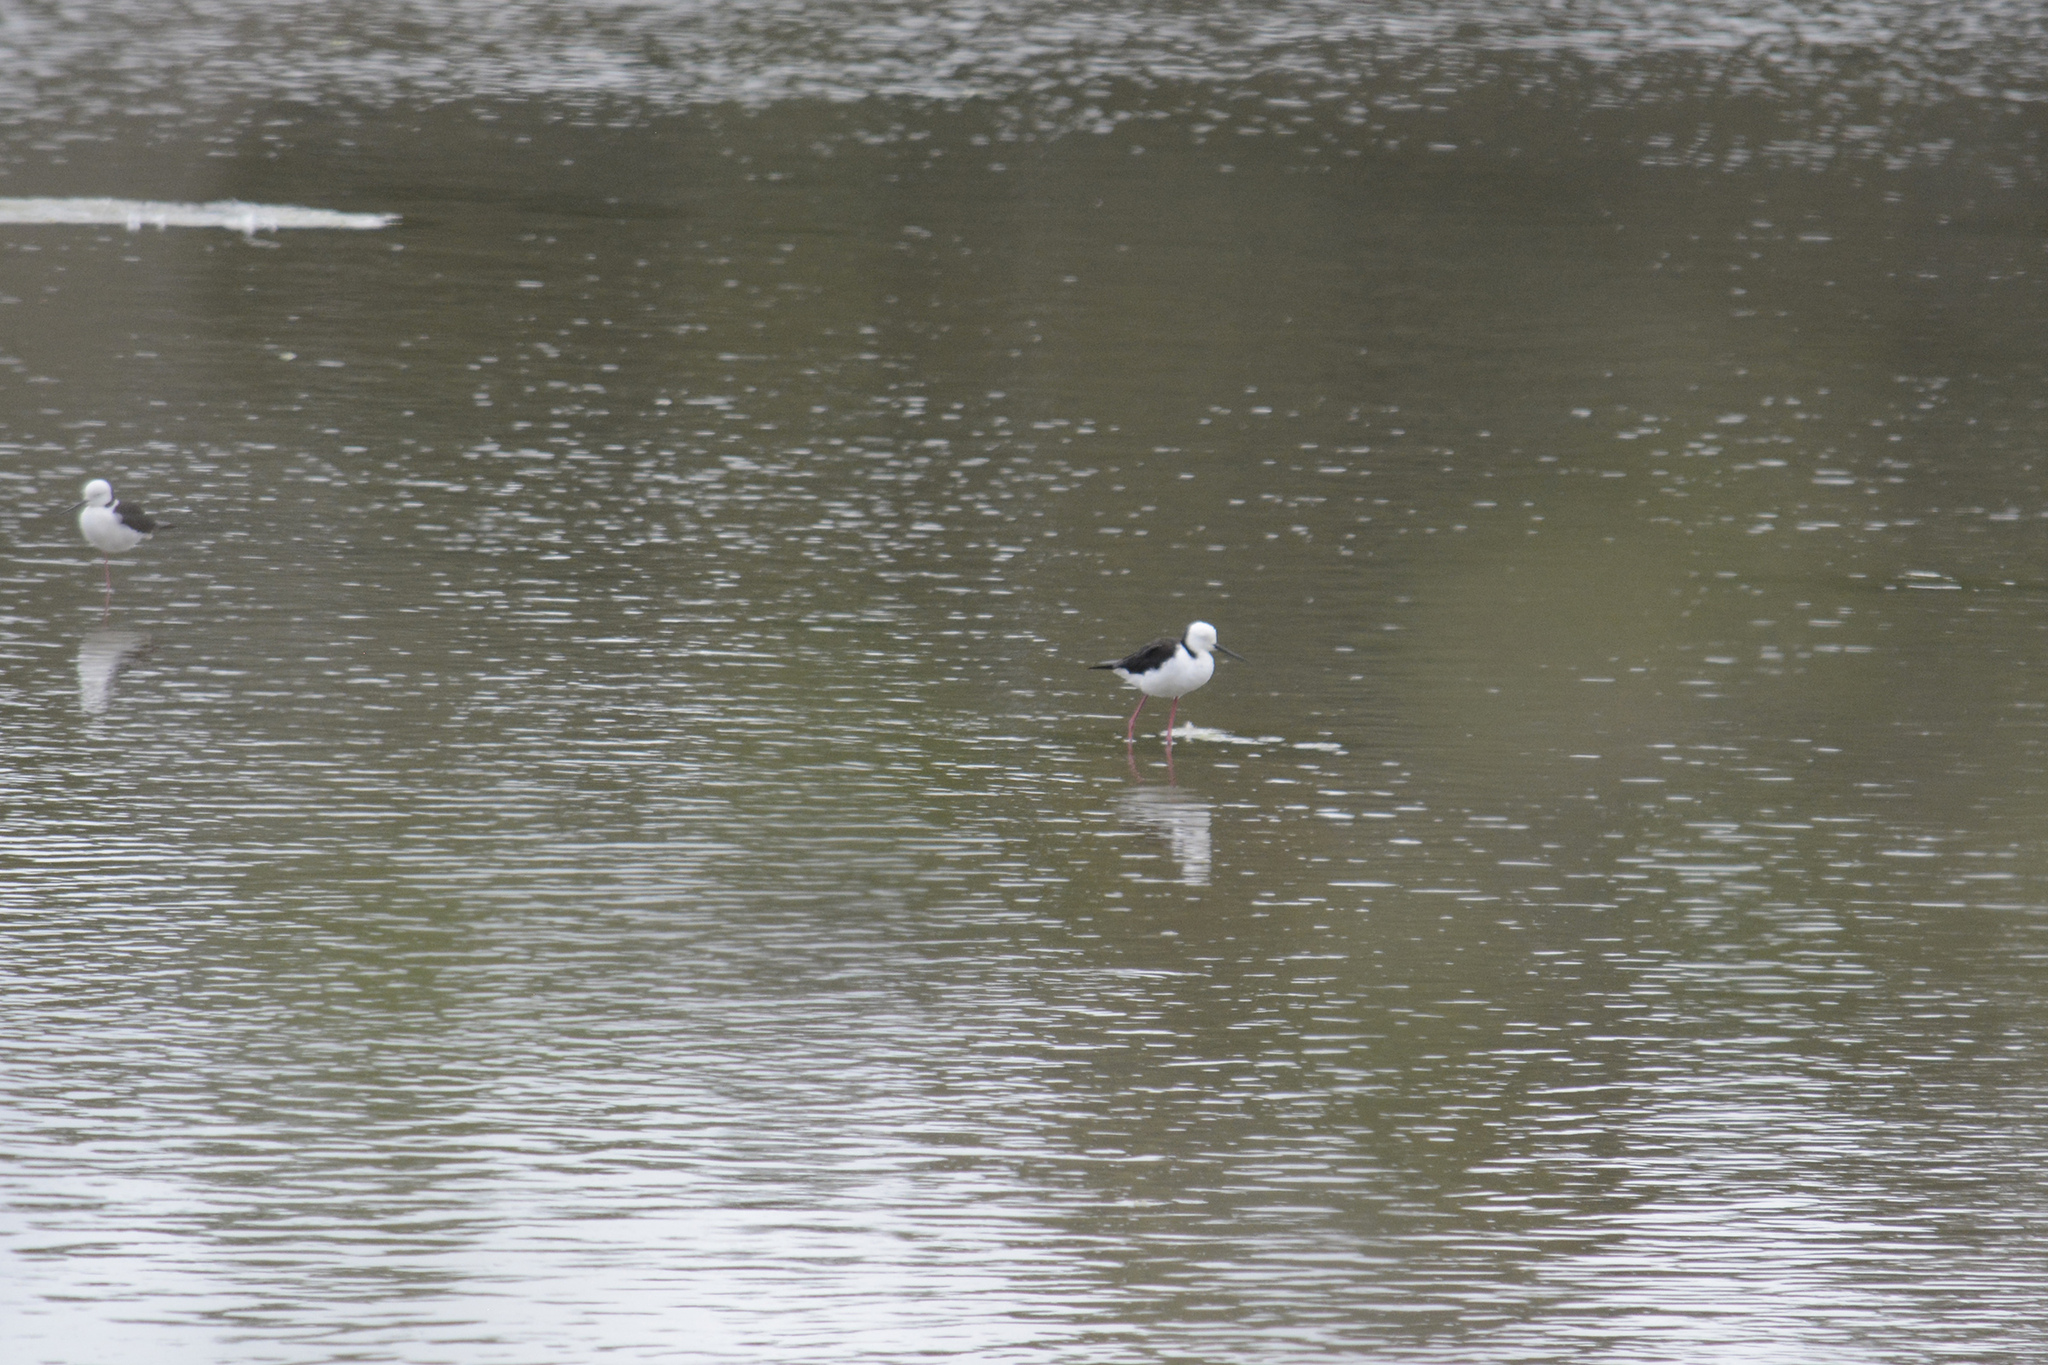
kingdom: Animalia
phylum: Chordata
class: Aves
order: Charadriiformes
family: Recurvirostridae
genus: Himantopus
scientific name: Himantopus leucocephalus
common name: White-headed stilt
